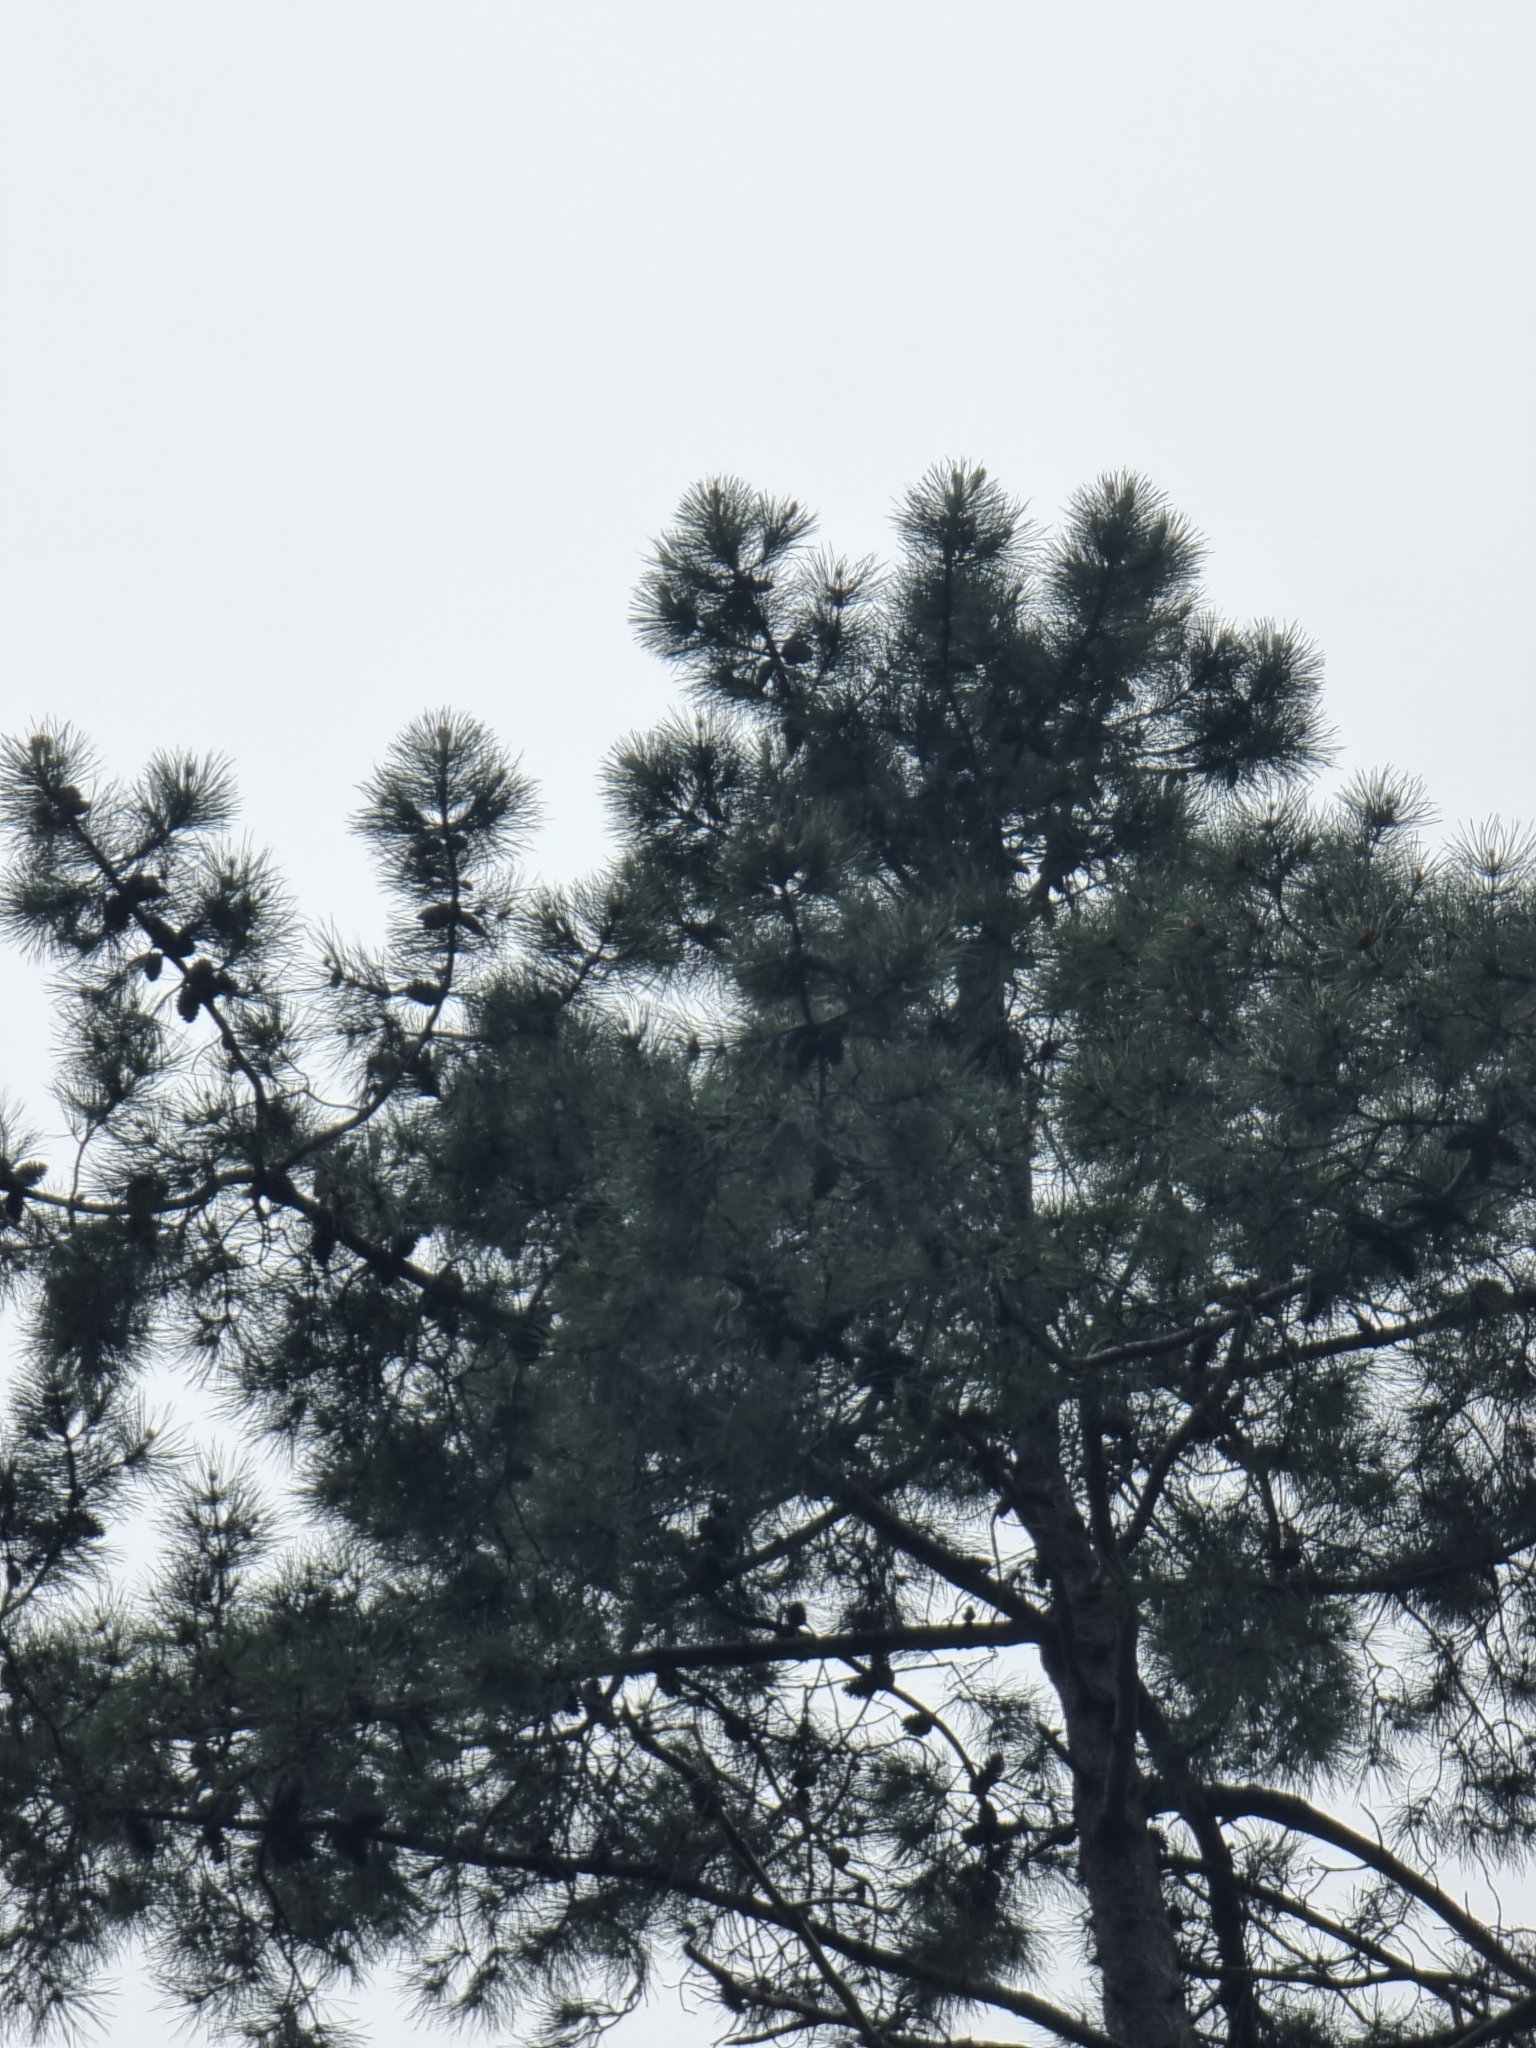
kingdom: Plantae
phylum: Tracheophyta
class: Pinopsida
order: Pinales
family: Pinaceae
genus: Pinus
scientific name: Pinus pinaster
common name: Maritime pine
